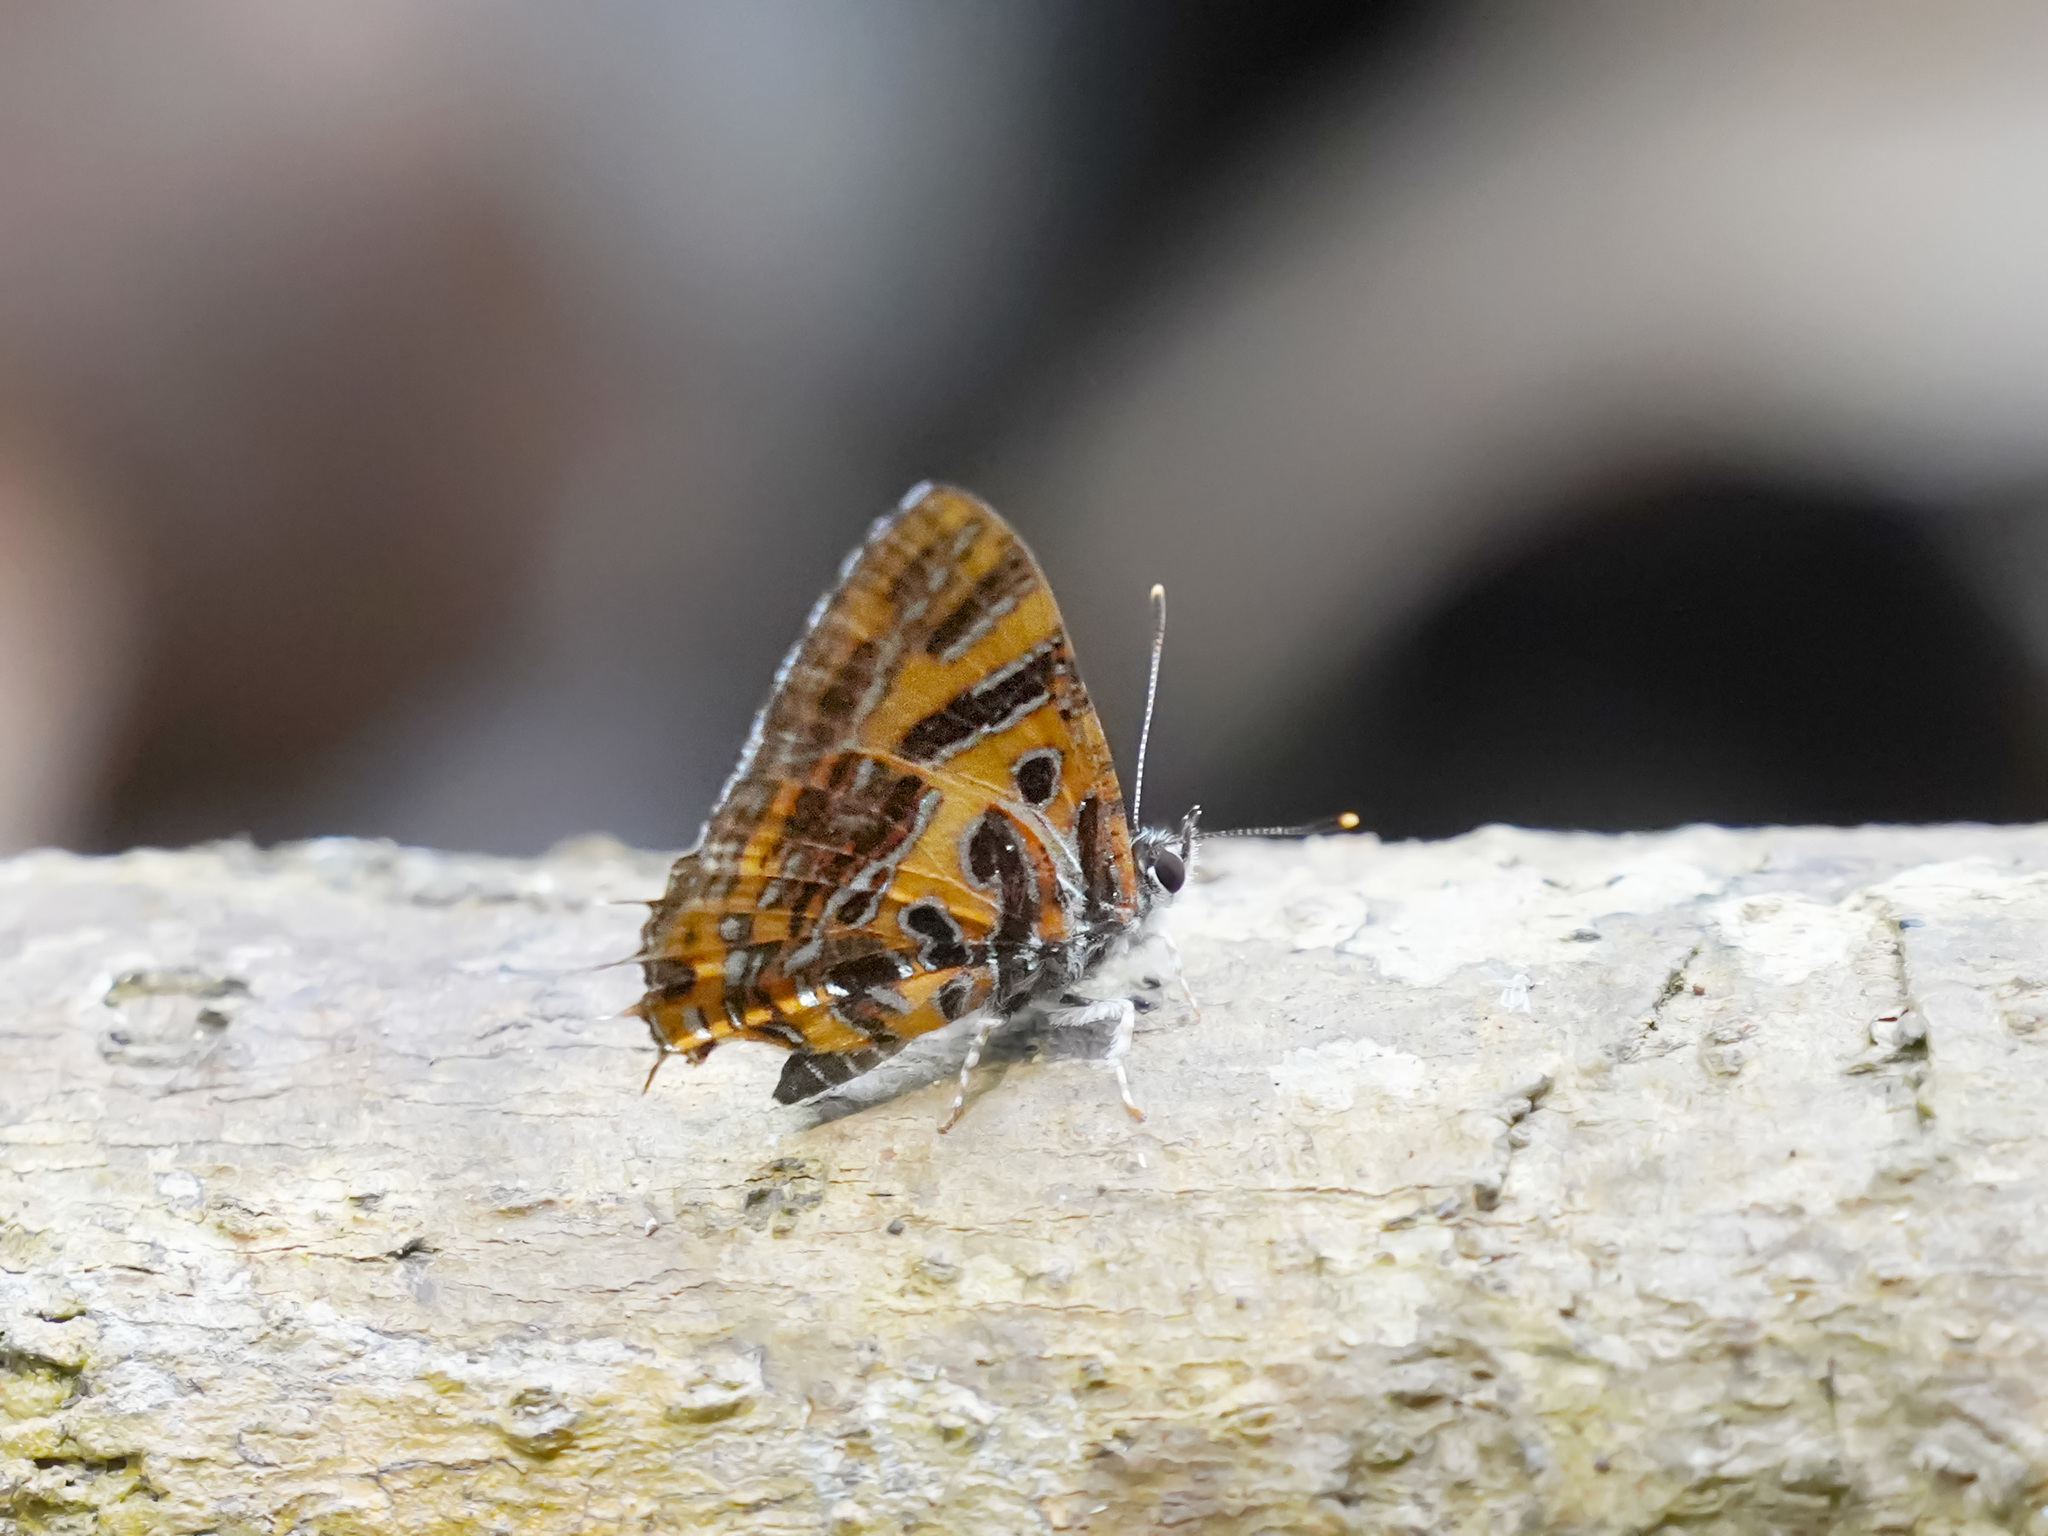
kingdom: Animalia
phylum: Arthropoda
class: Insecta
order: Lepidoptera
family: Lycaenidae
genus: Catapaecilma
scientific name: Catapaecilma subochrea
